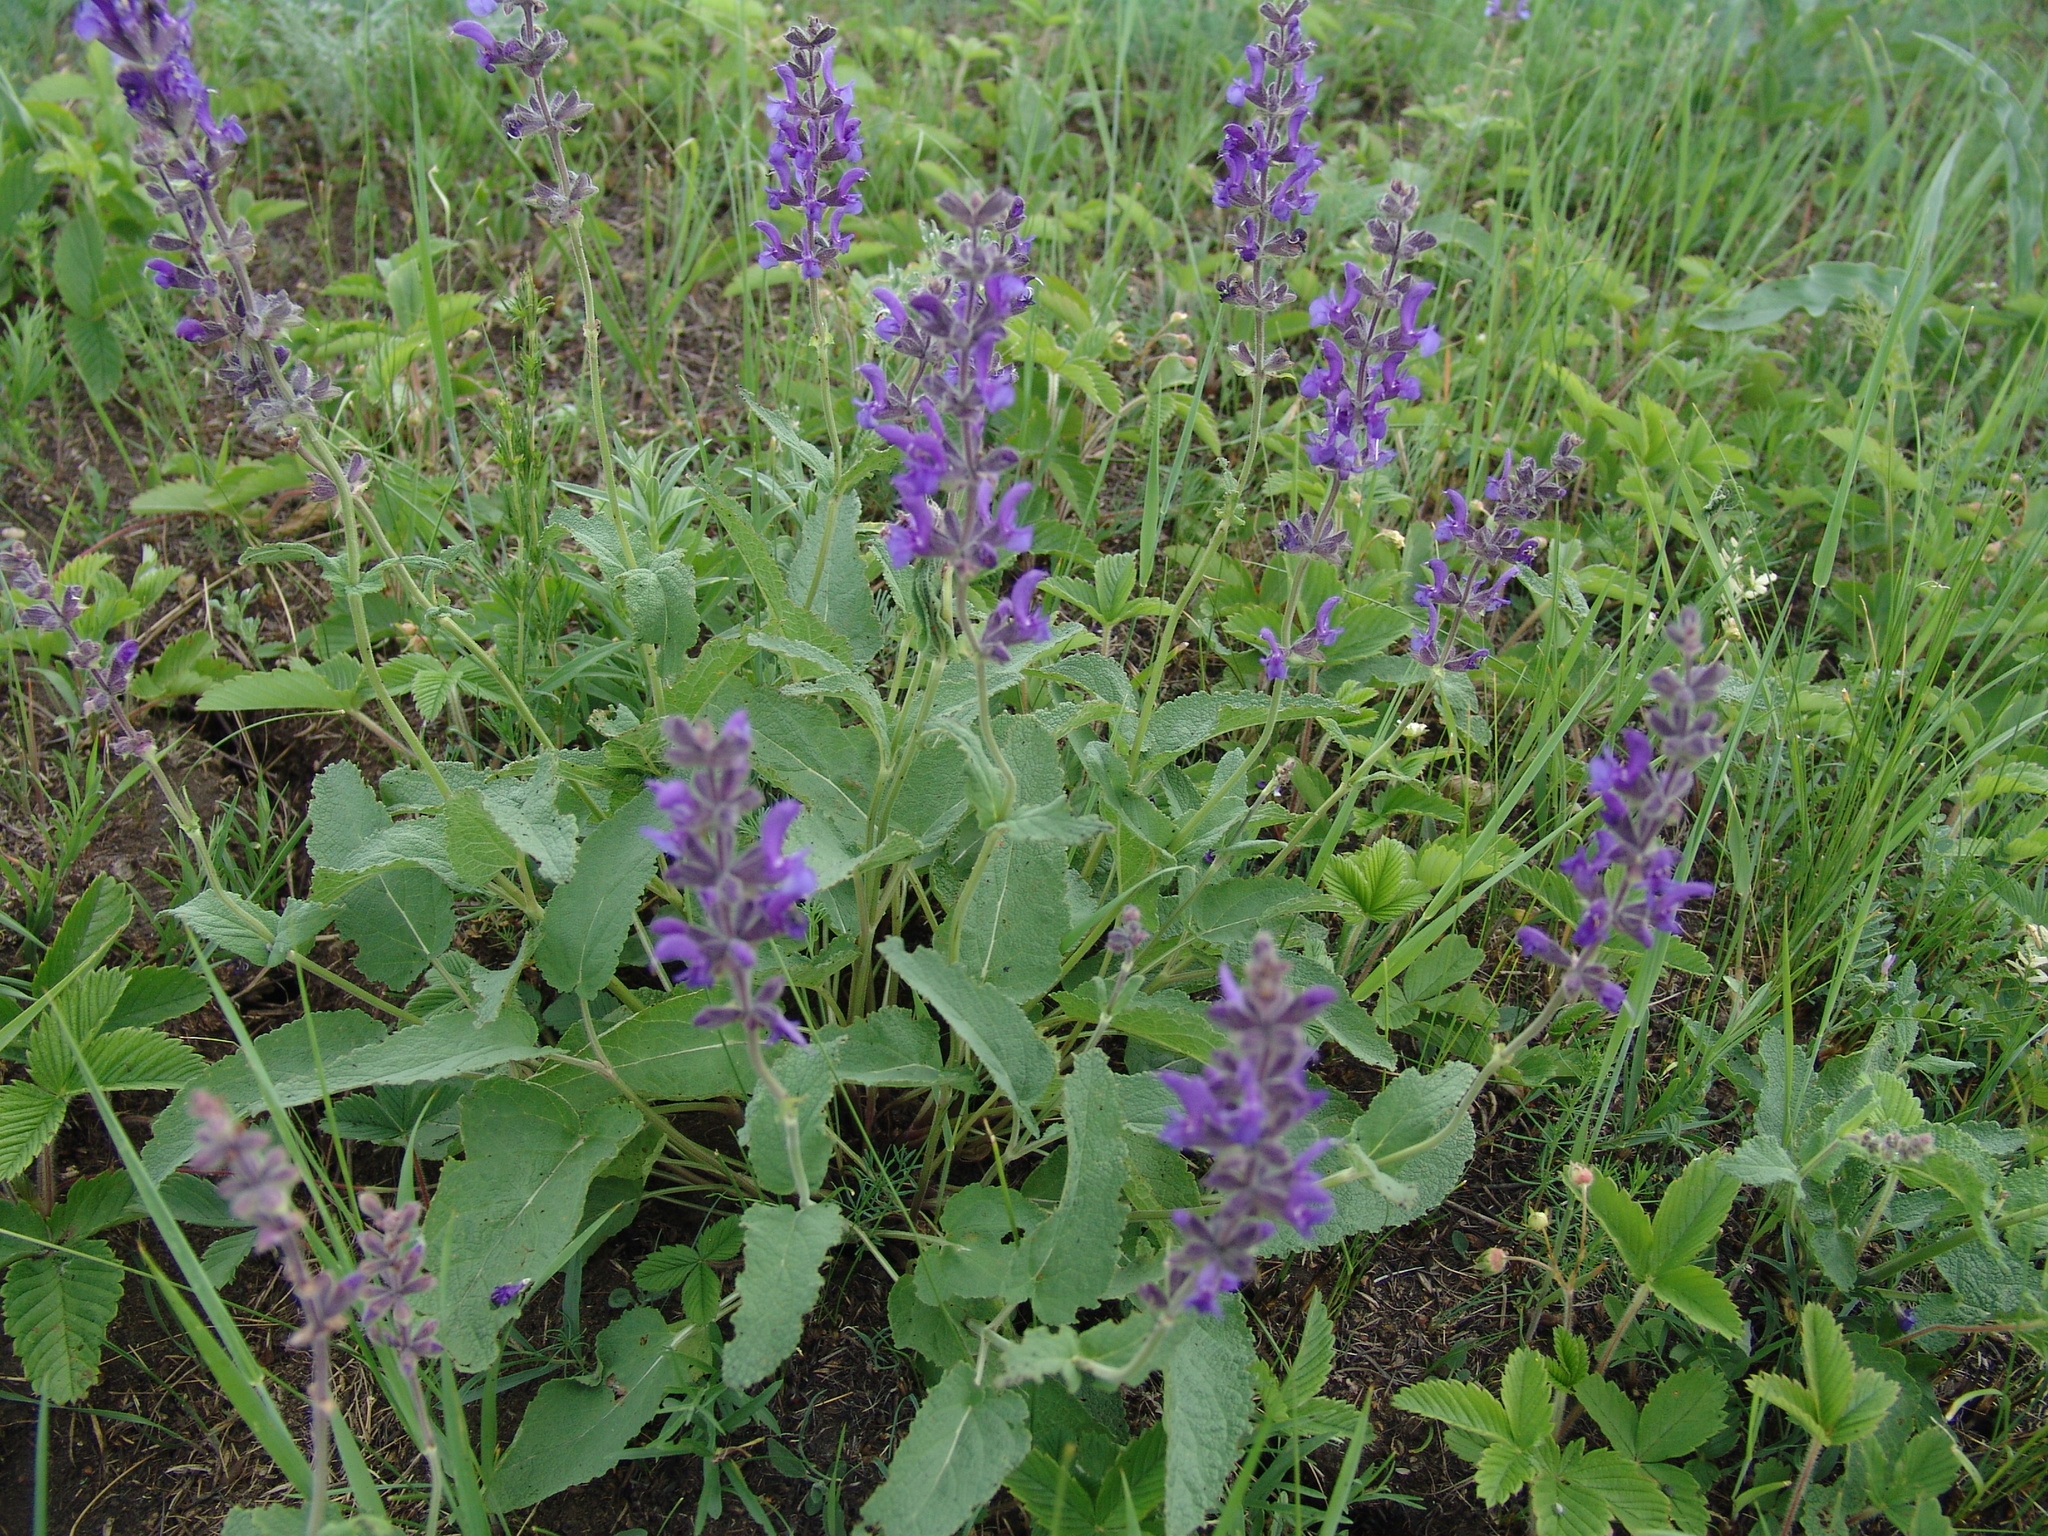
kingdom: Plantae
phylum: Tracheophyta
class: Magnoliopsida
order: Lamiales
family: Lamiaceae
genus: Salvia
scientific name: Salvia dumetorum
